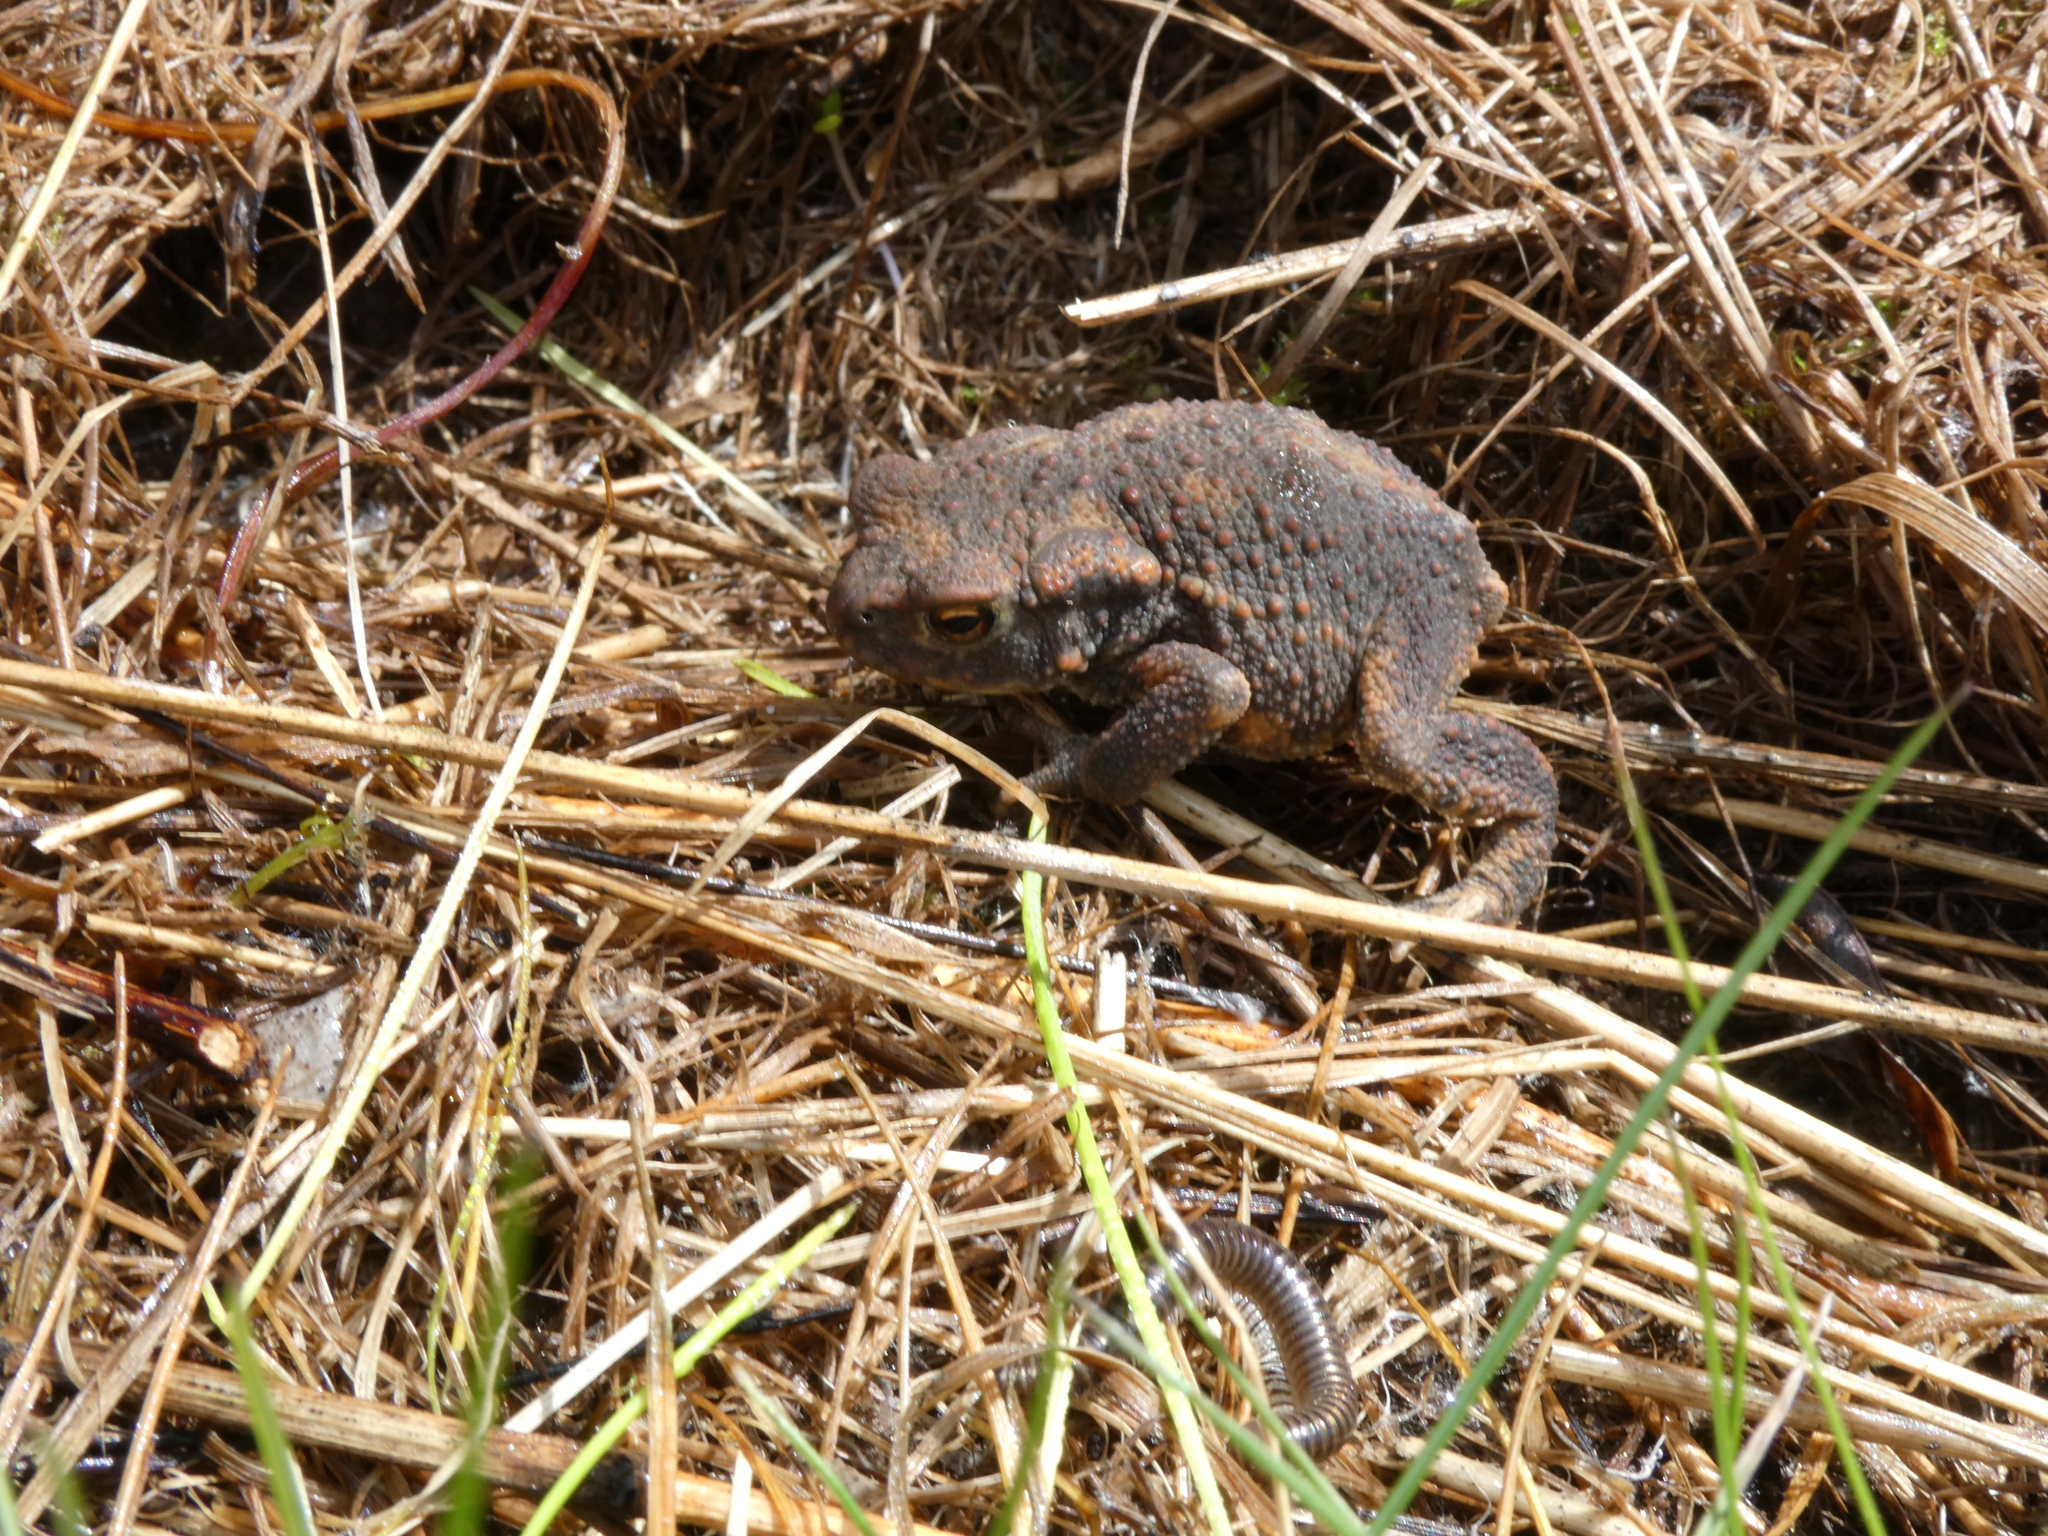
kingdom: Animalia
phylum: Chordata
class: Amphibia
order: Anura
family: Bufonidae
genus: Bufo
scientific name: Bufo bufo
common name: Common toad
